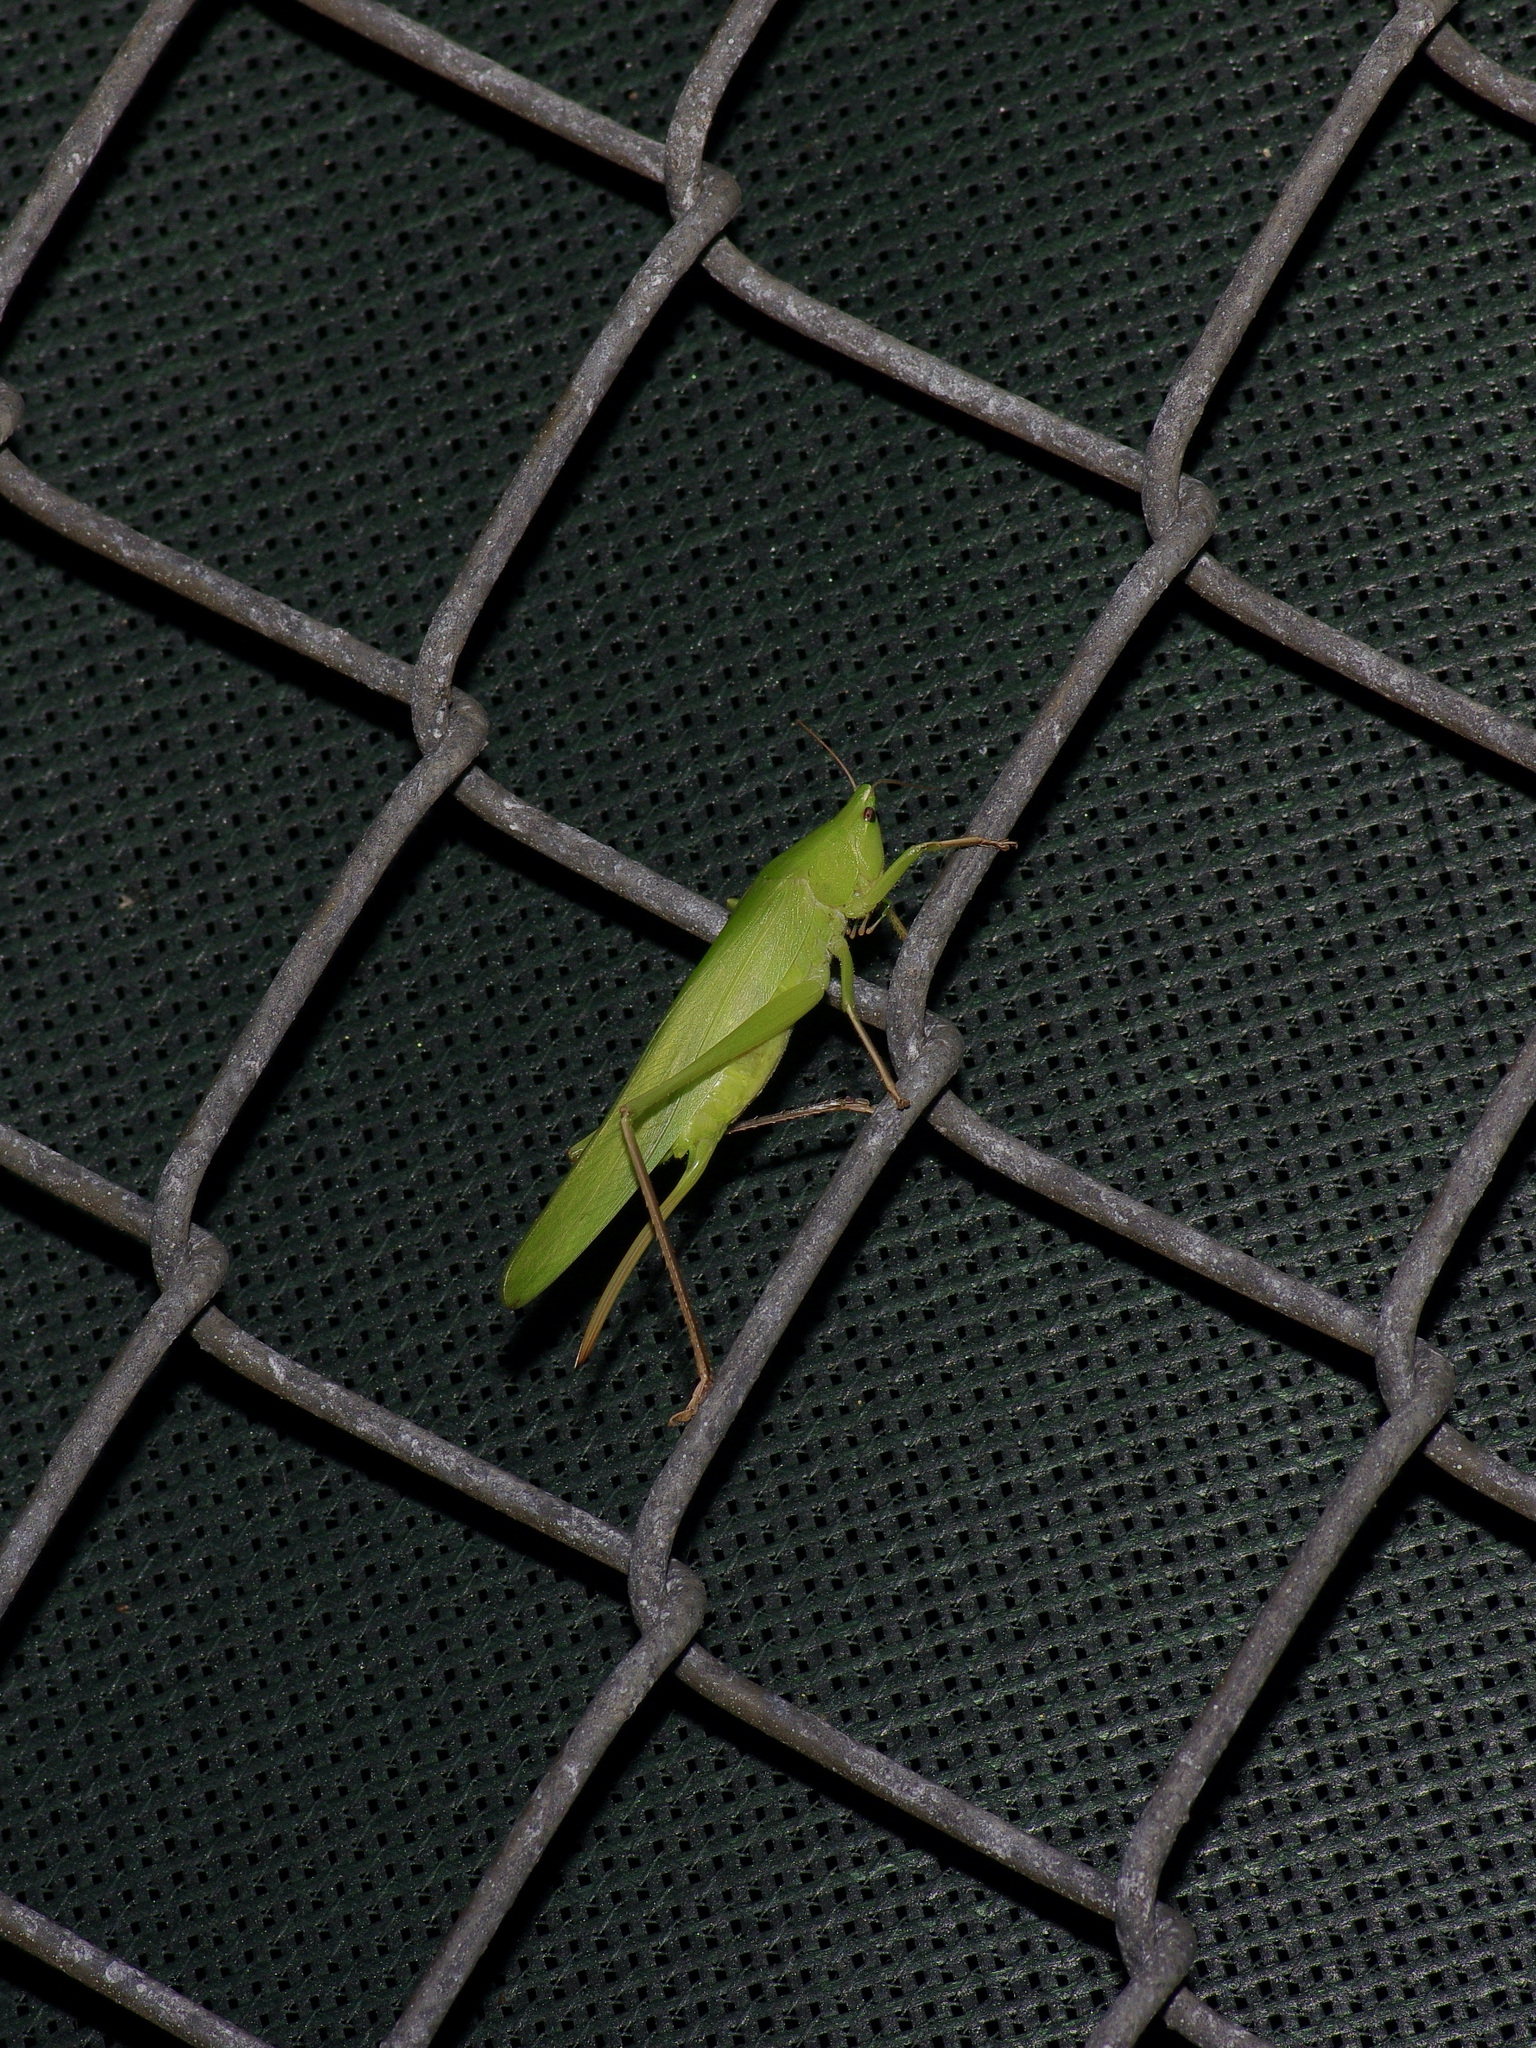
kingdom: Animalia
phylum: Arthropoda
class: Insecta
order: Orthoptera
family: Tettigoniidae
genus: Neoconocephalus
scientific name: Neoconocephalus triops
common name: Broad-tipped conehead
